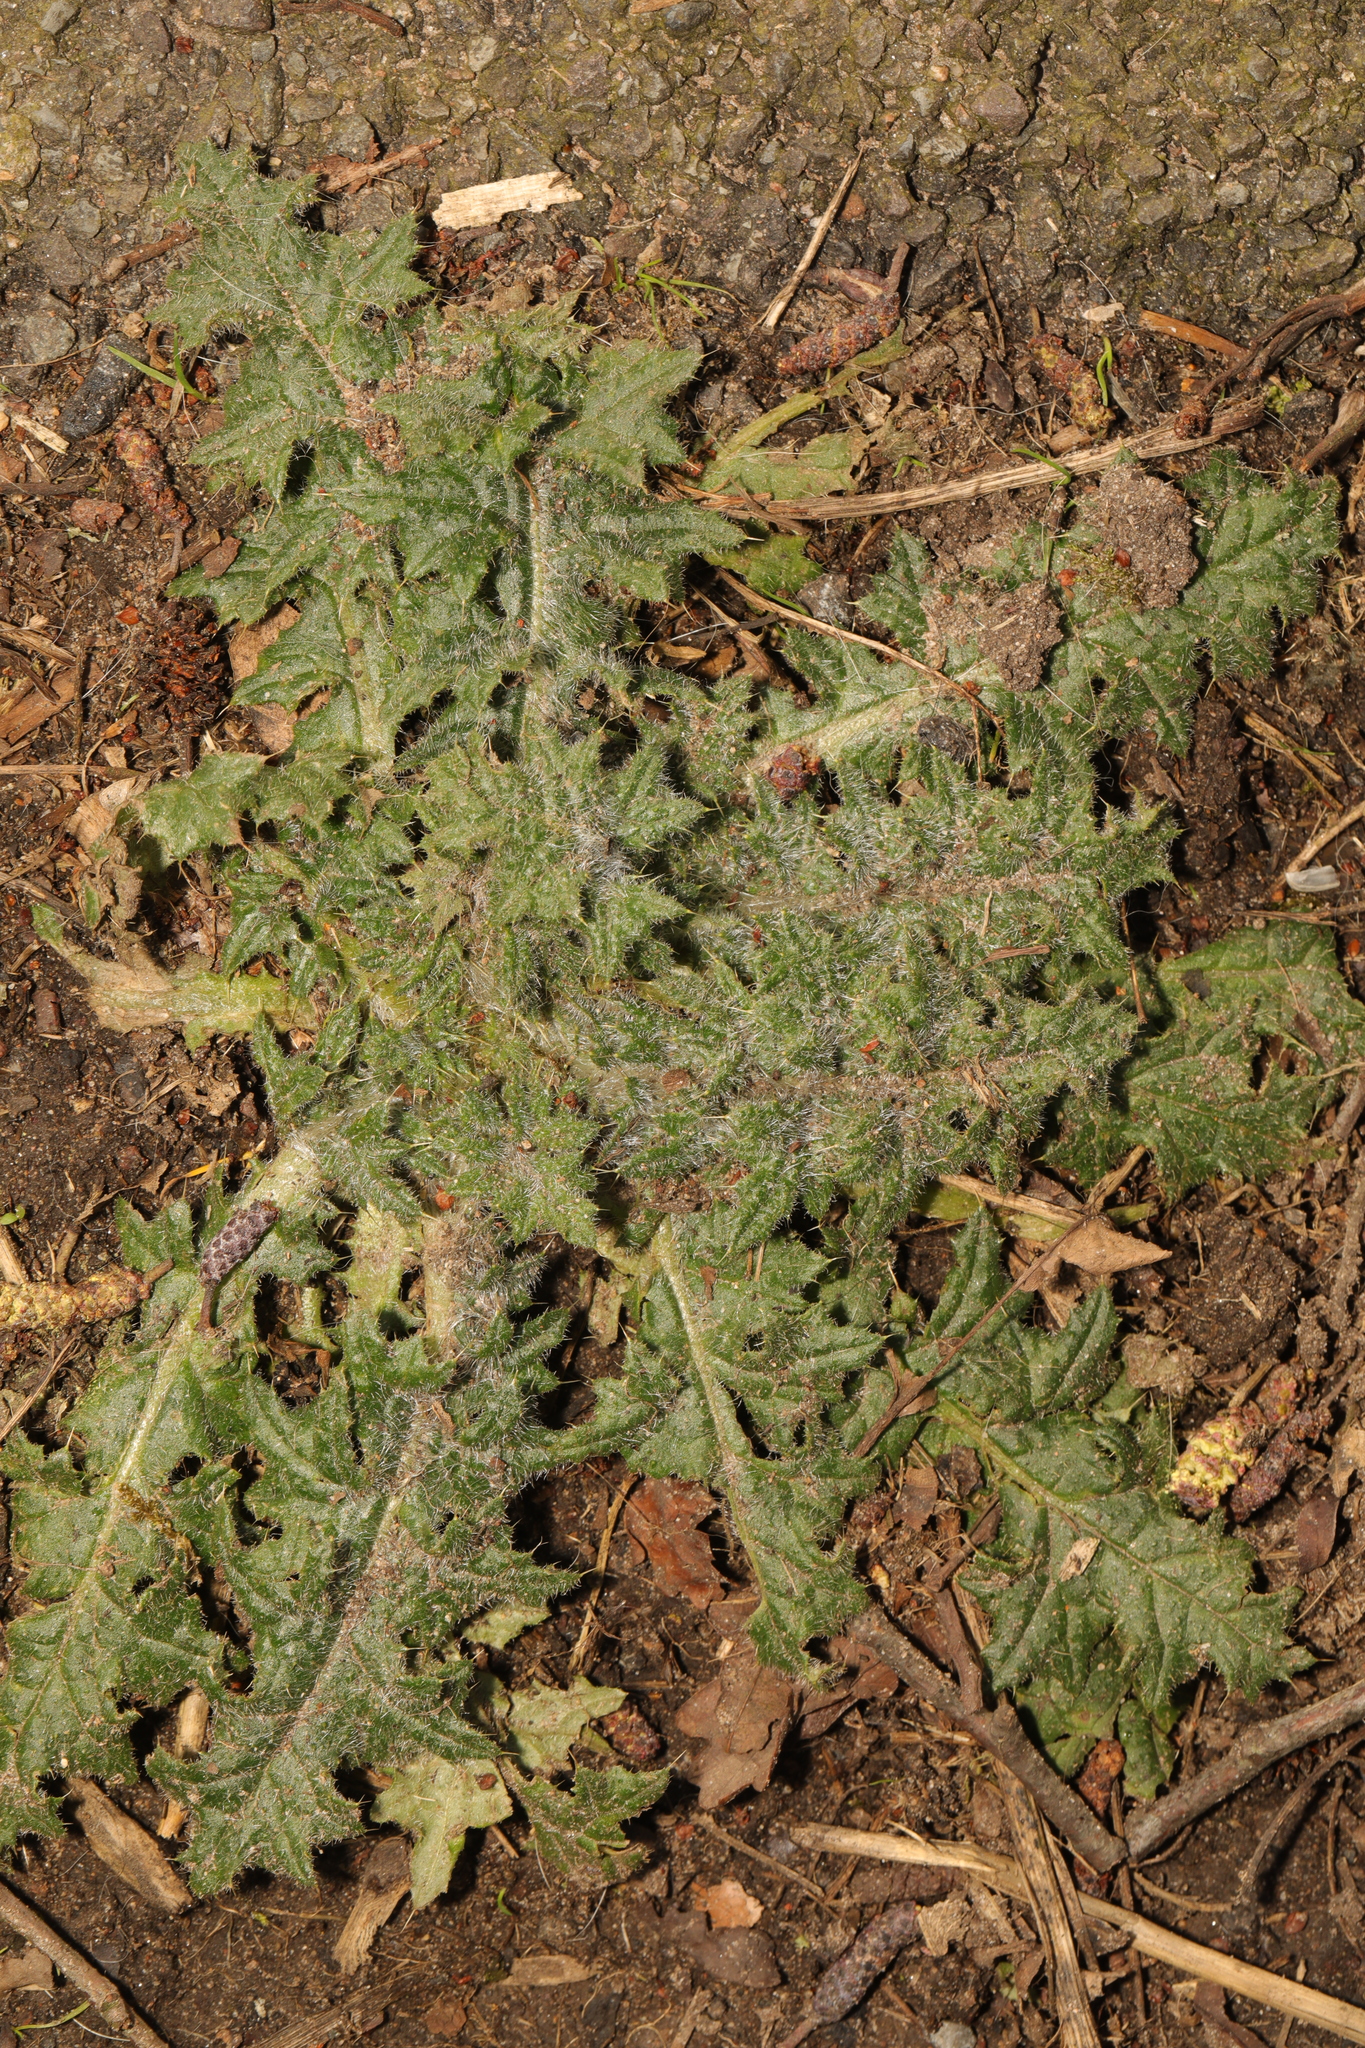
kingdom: Plantae
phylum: Tracheophyta
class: Magnoliopsida
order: Asterales
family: Asteraceae
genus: Cirsium
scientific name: Cirsium vulgare
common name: Bull thistle
